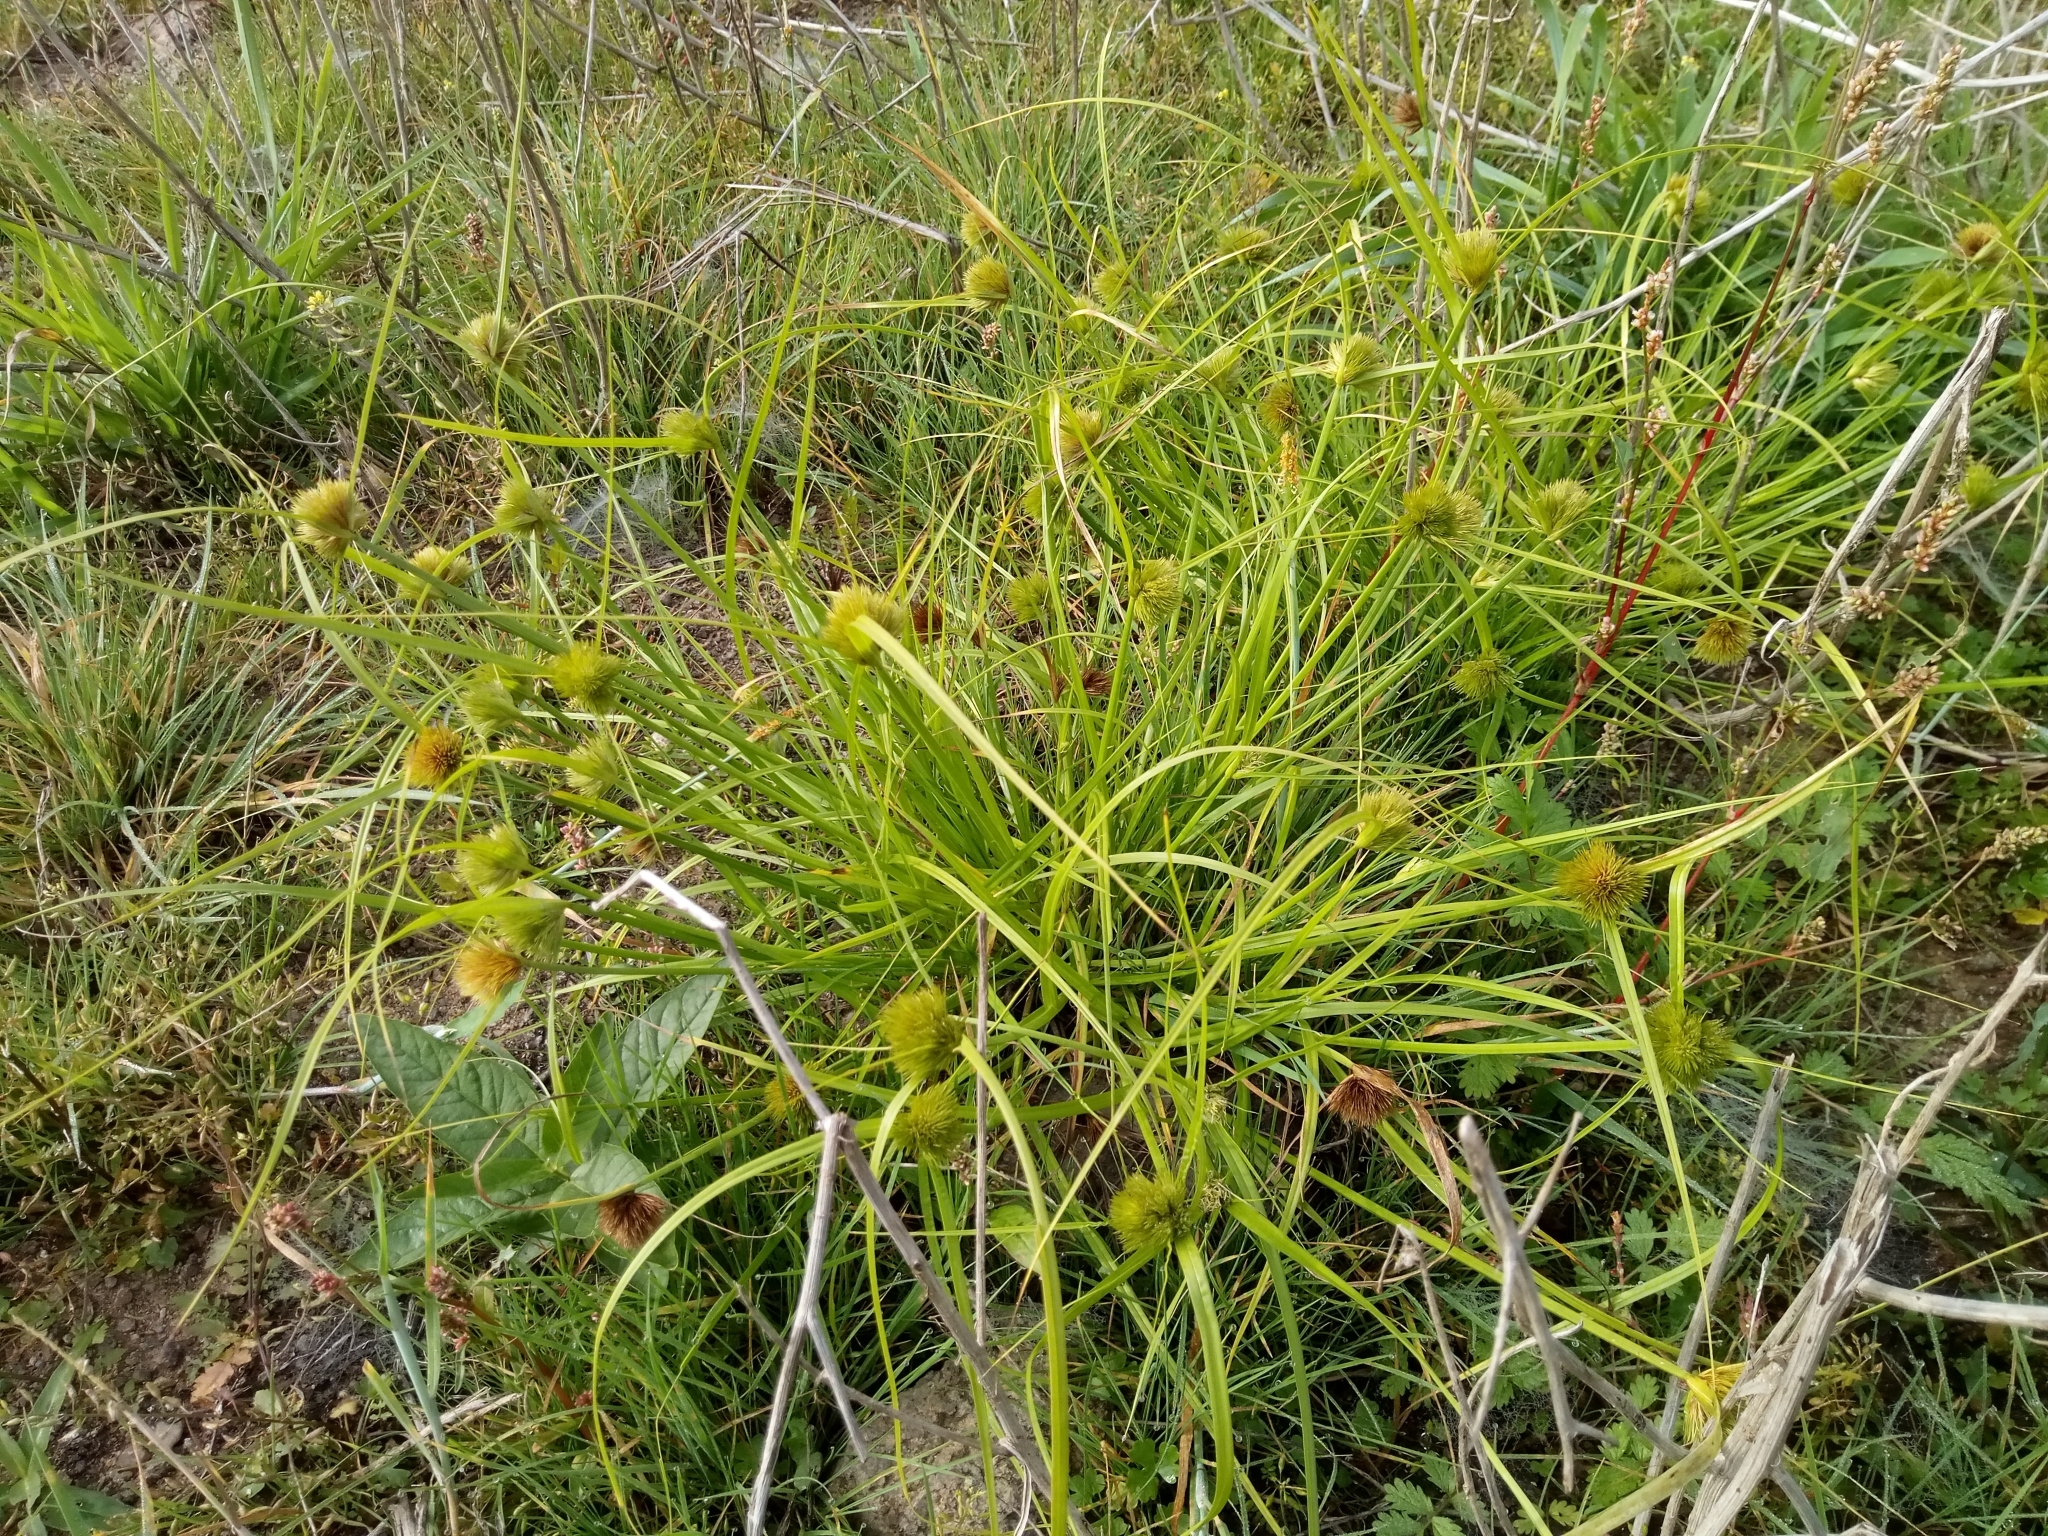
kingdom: Plantae
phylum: Tracheophyta
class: Liliopsida
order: Poales
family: Cyperaceae
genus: Carex
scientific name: Carex bohemica
